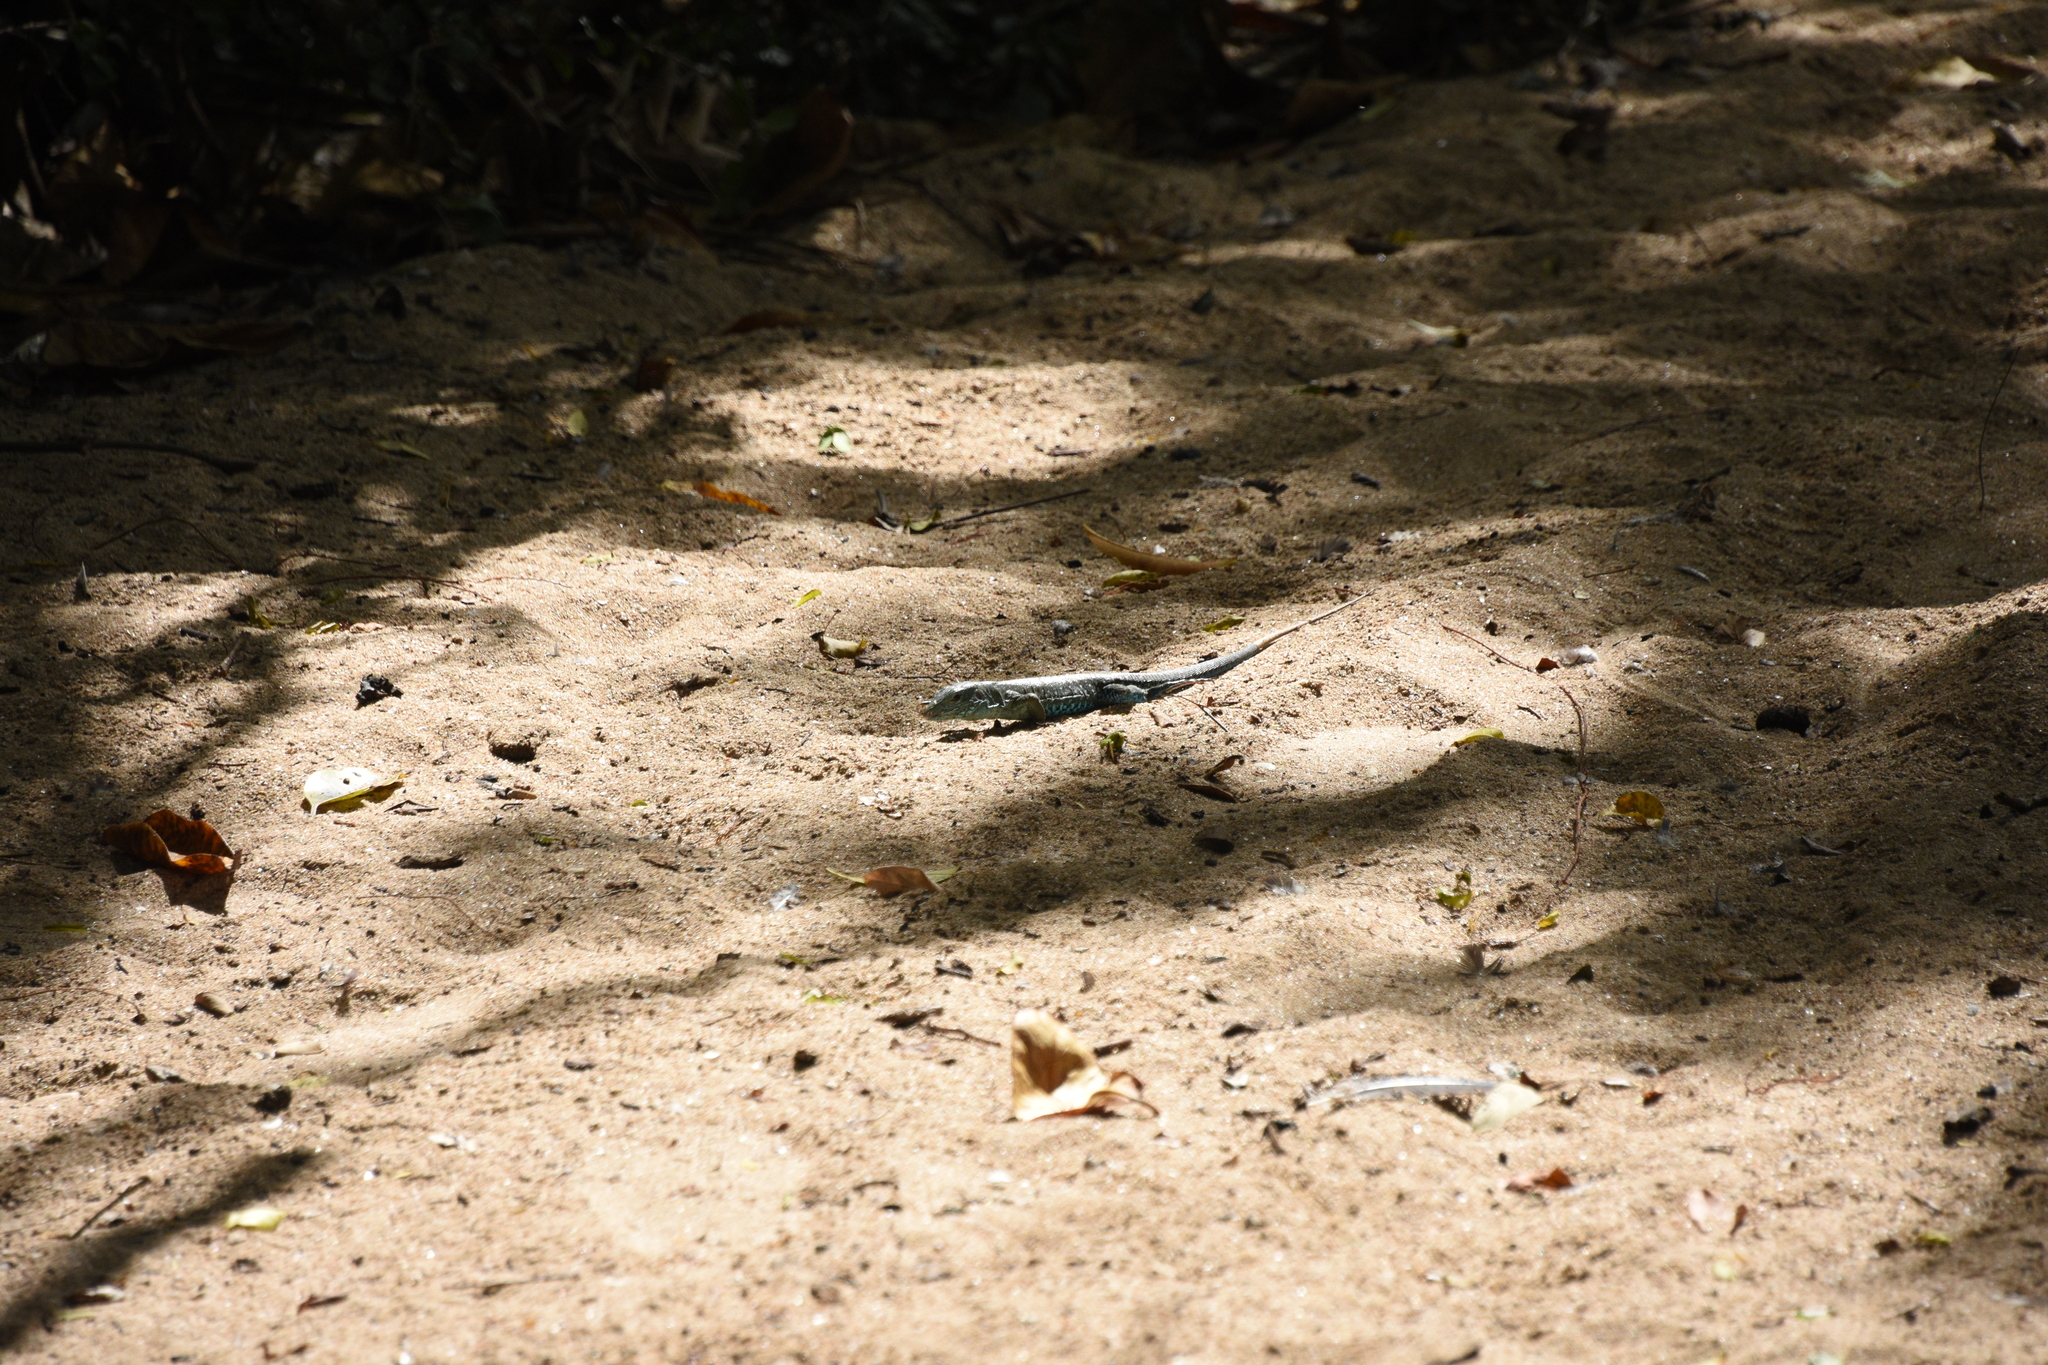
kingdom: Animalia
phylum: Chordata
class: Squamata
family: Teiidae
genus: Ameiva
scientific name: Ameiva tobagana
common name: Antillean ameiva
